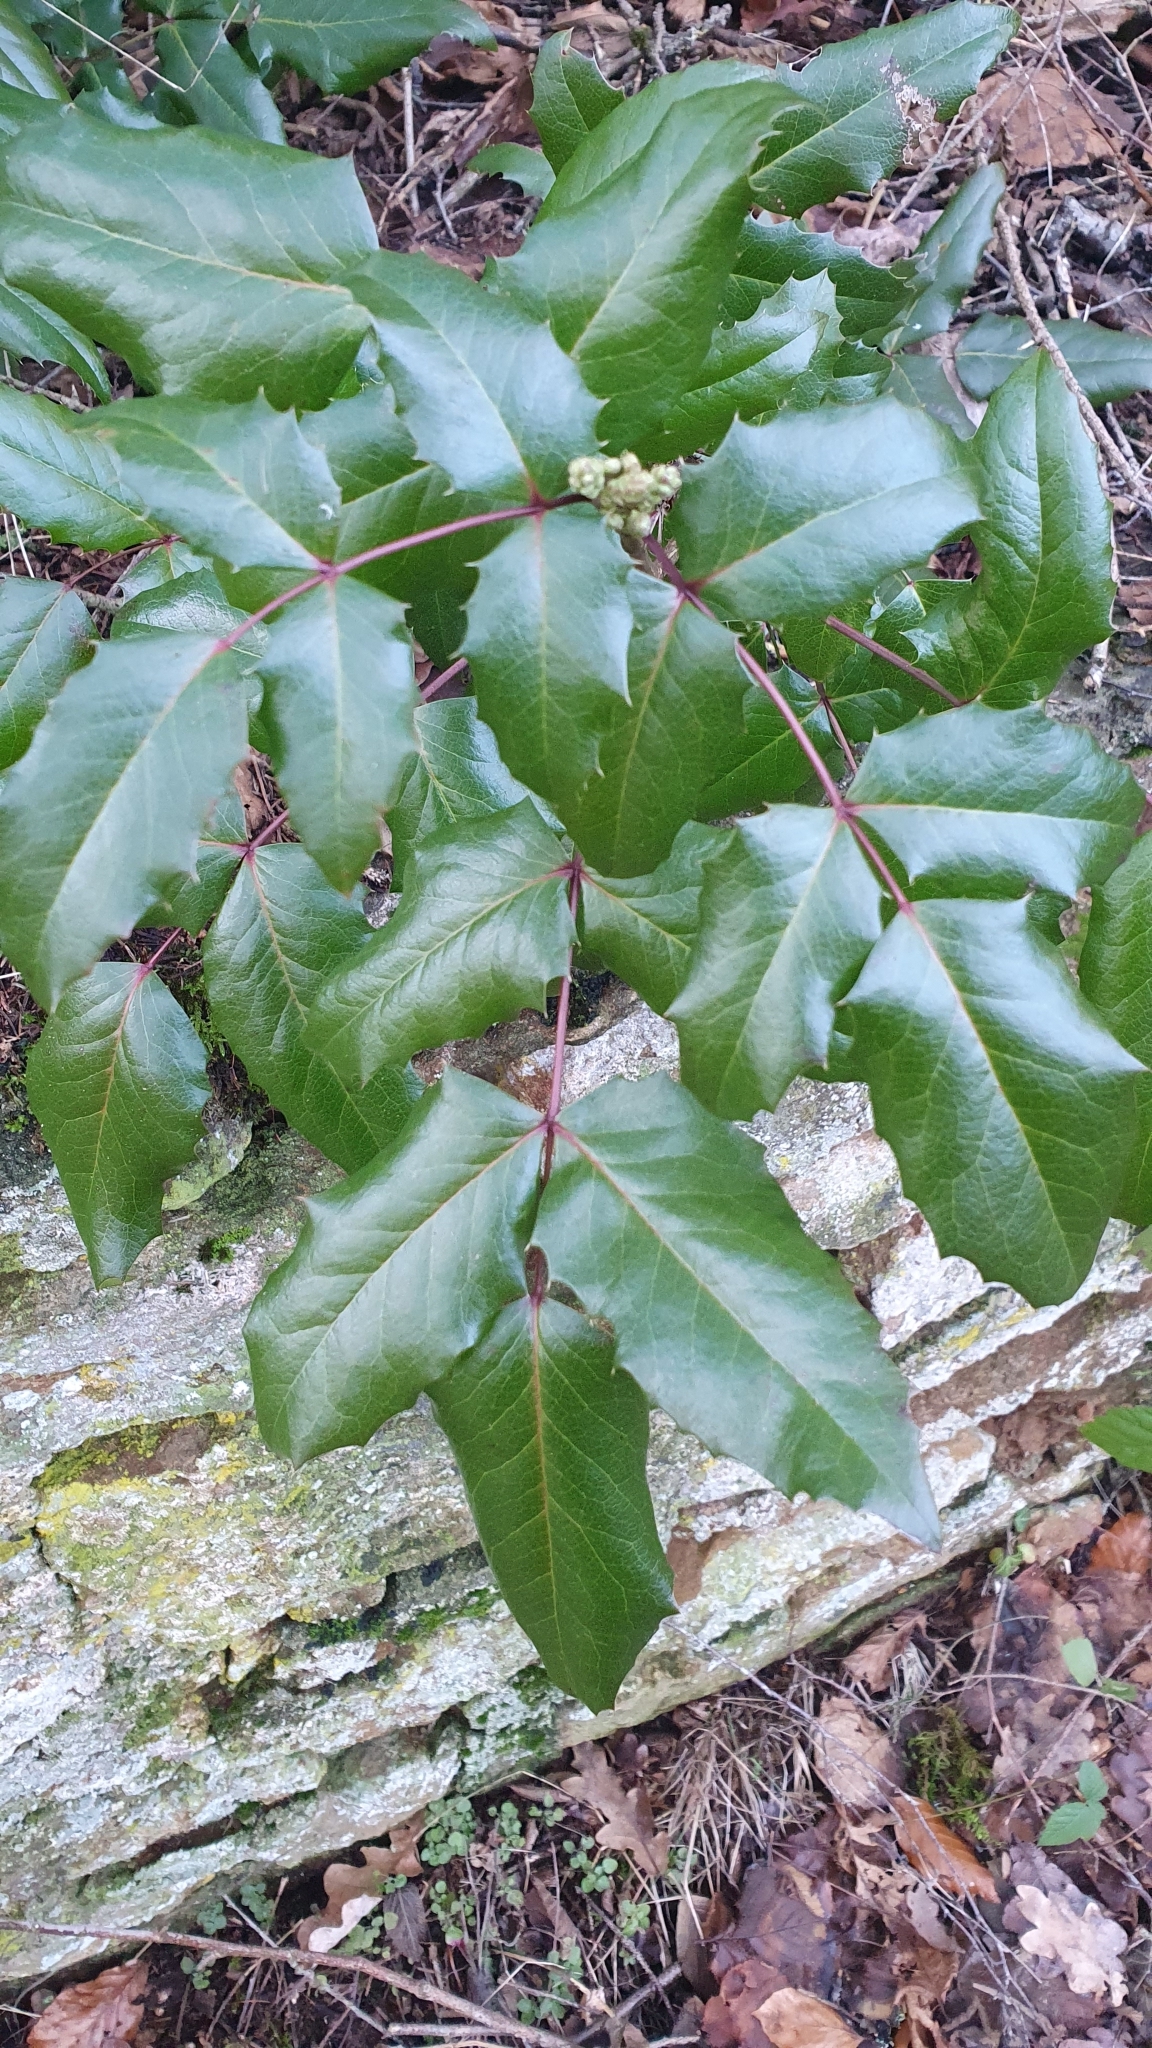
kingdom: Plantae
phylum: Tracheophyta
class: Magnoliopsida
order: Ranunculales
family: Berberidaceae
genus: Mahonia
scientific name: Mahonia aquifolium
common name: Oregon-grape
